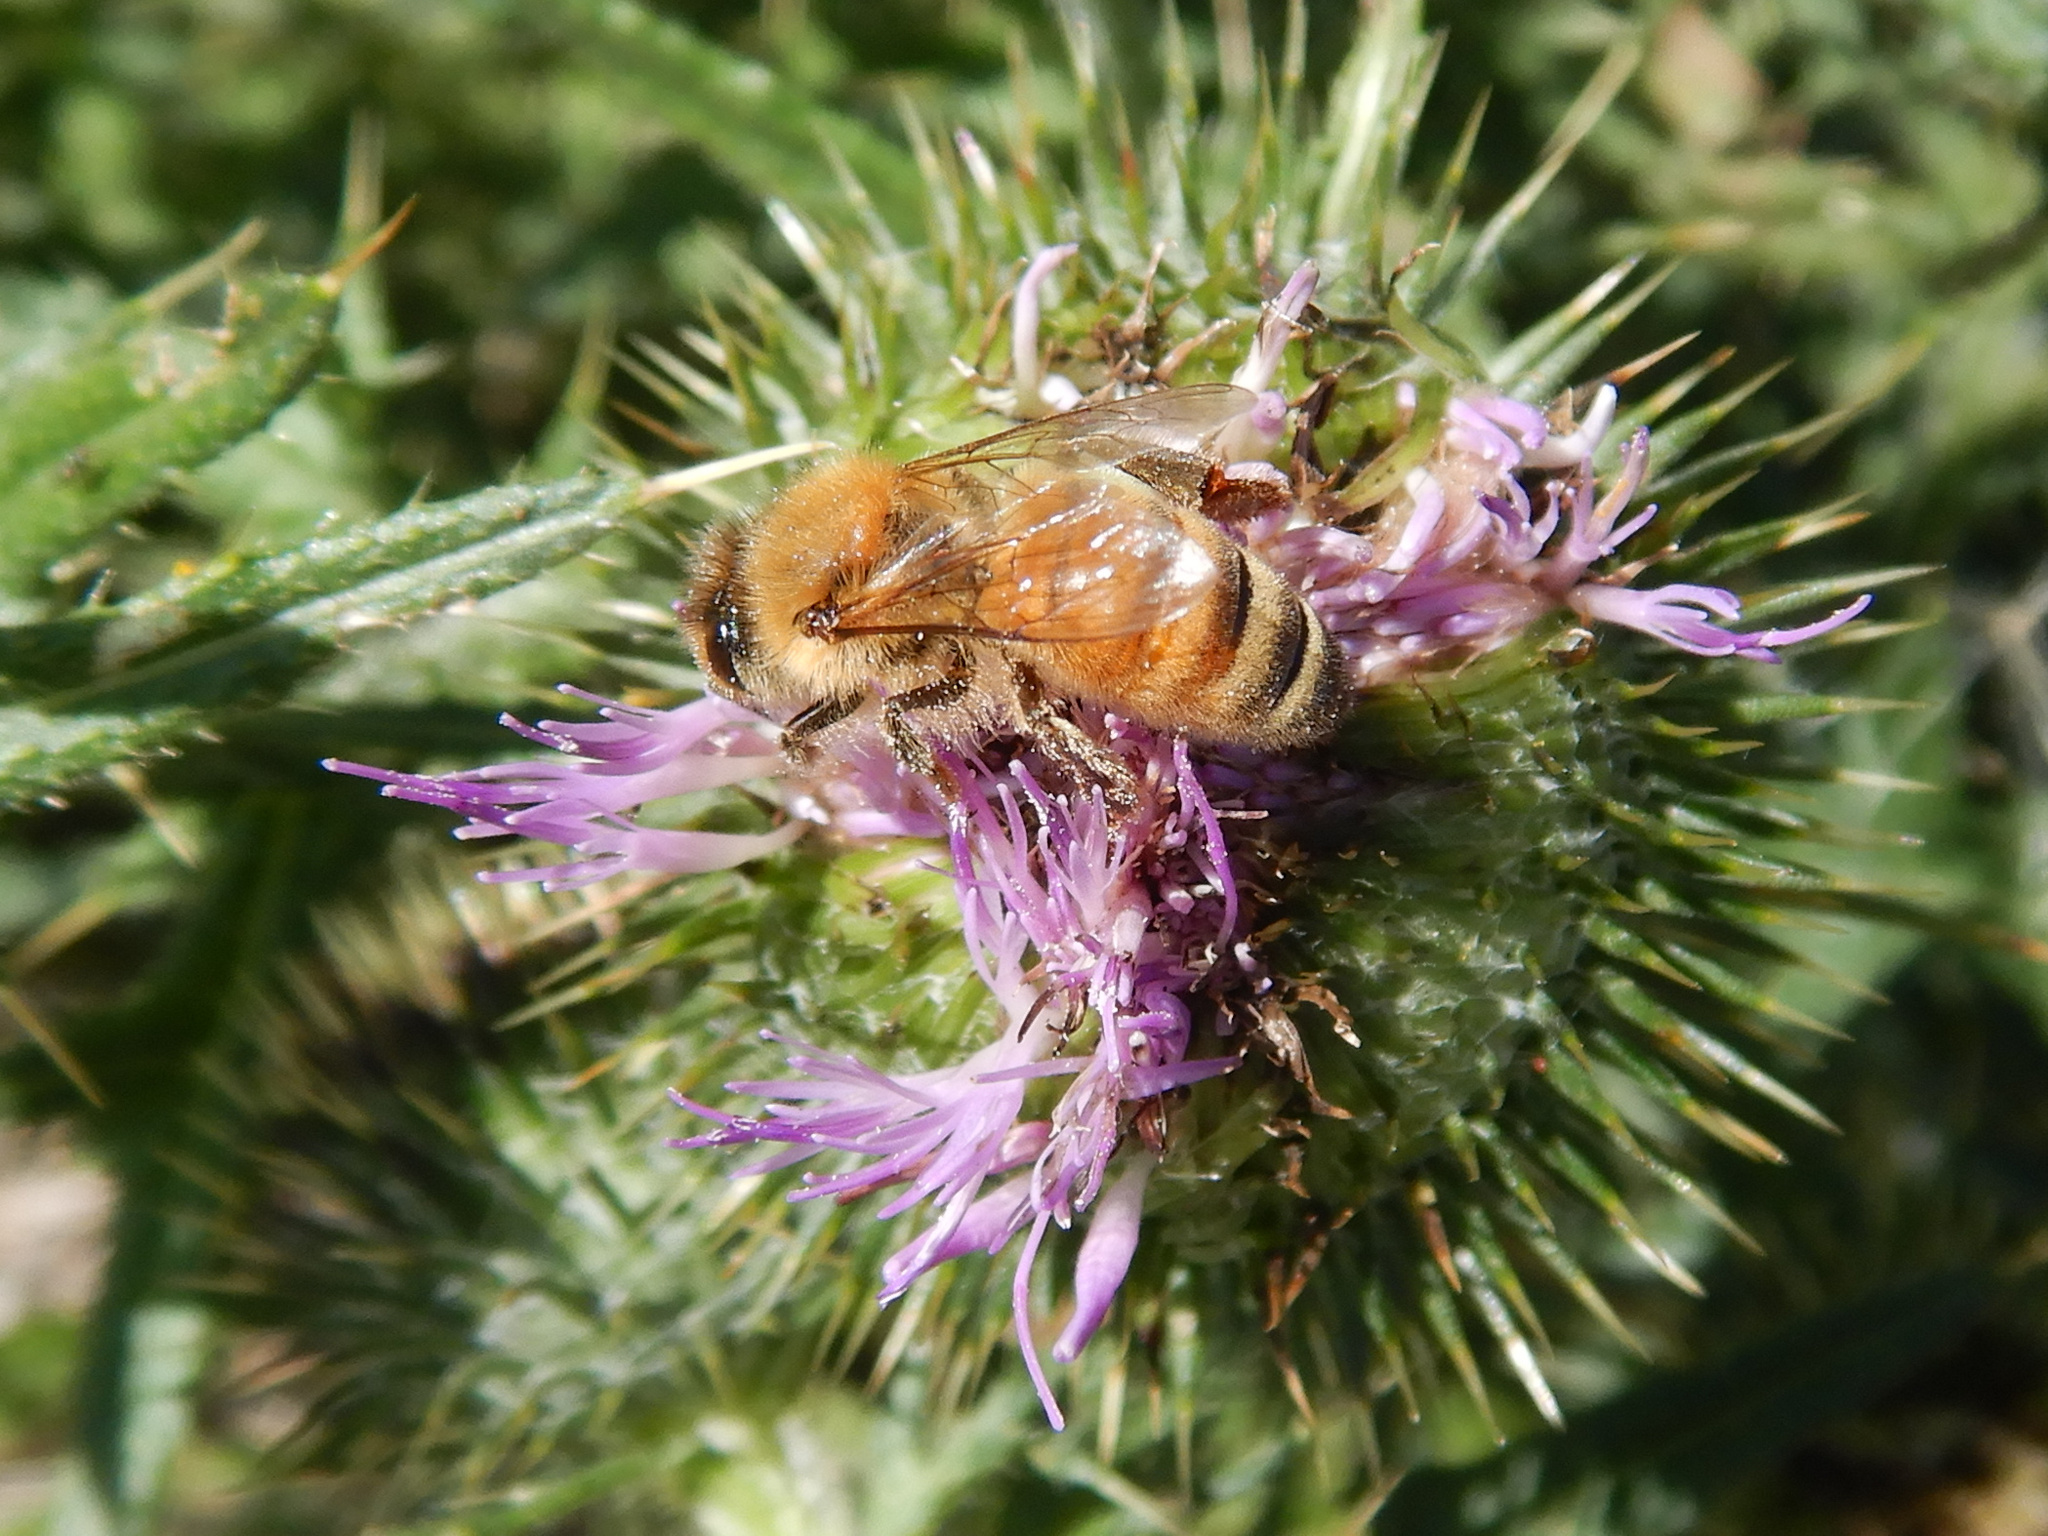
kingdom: Animalia
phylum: Arthropoda
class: Insecta
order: Hymenoptera
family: Apidae
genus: Apis
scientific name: Apis mellifera
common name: Honey bee
